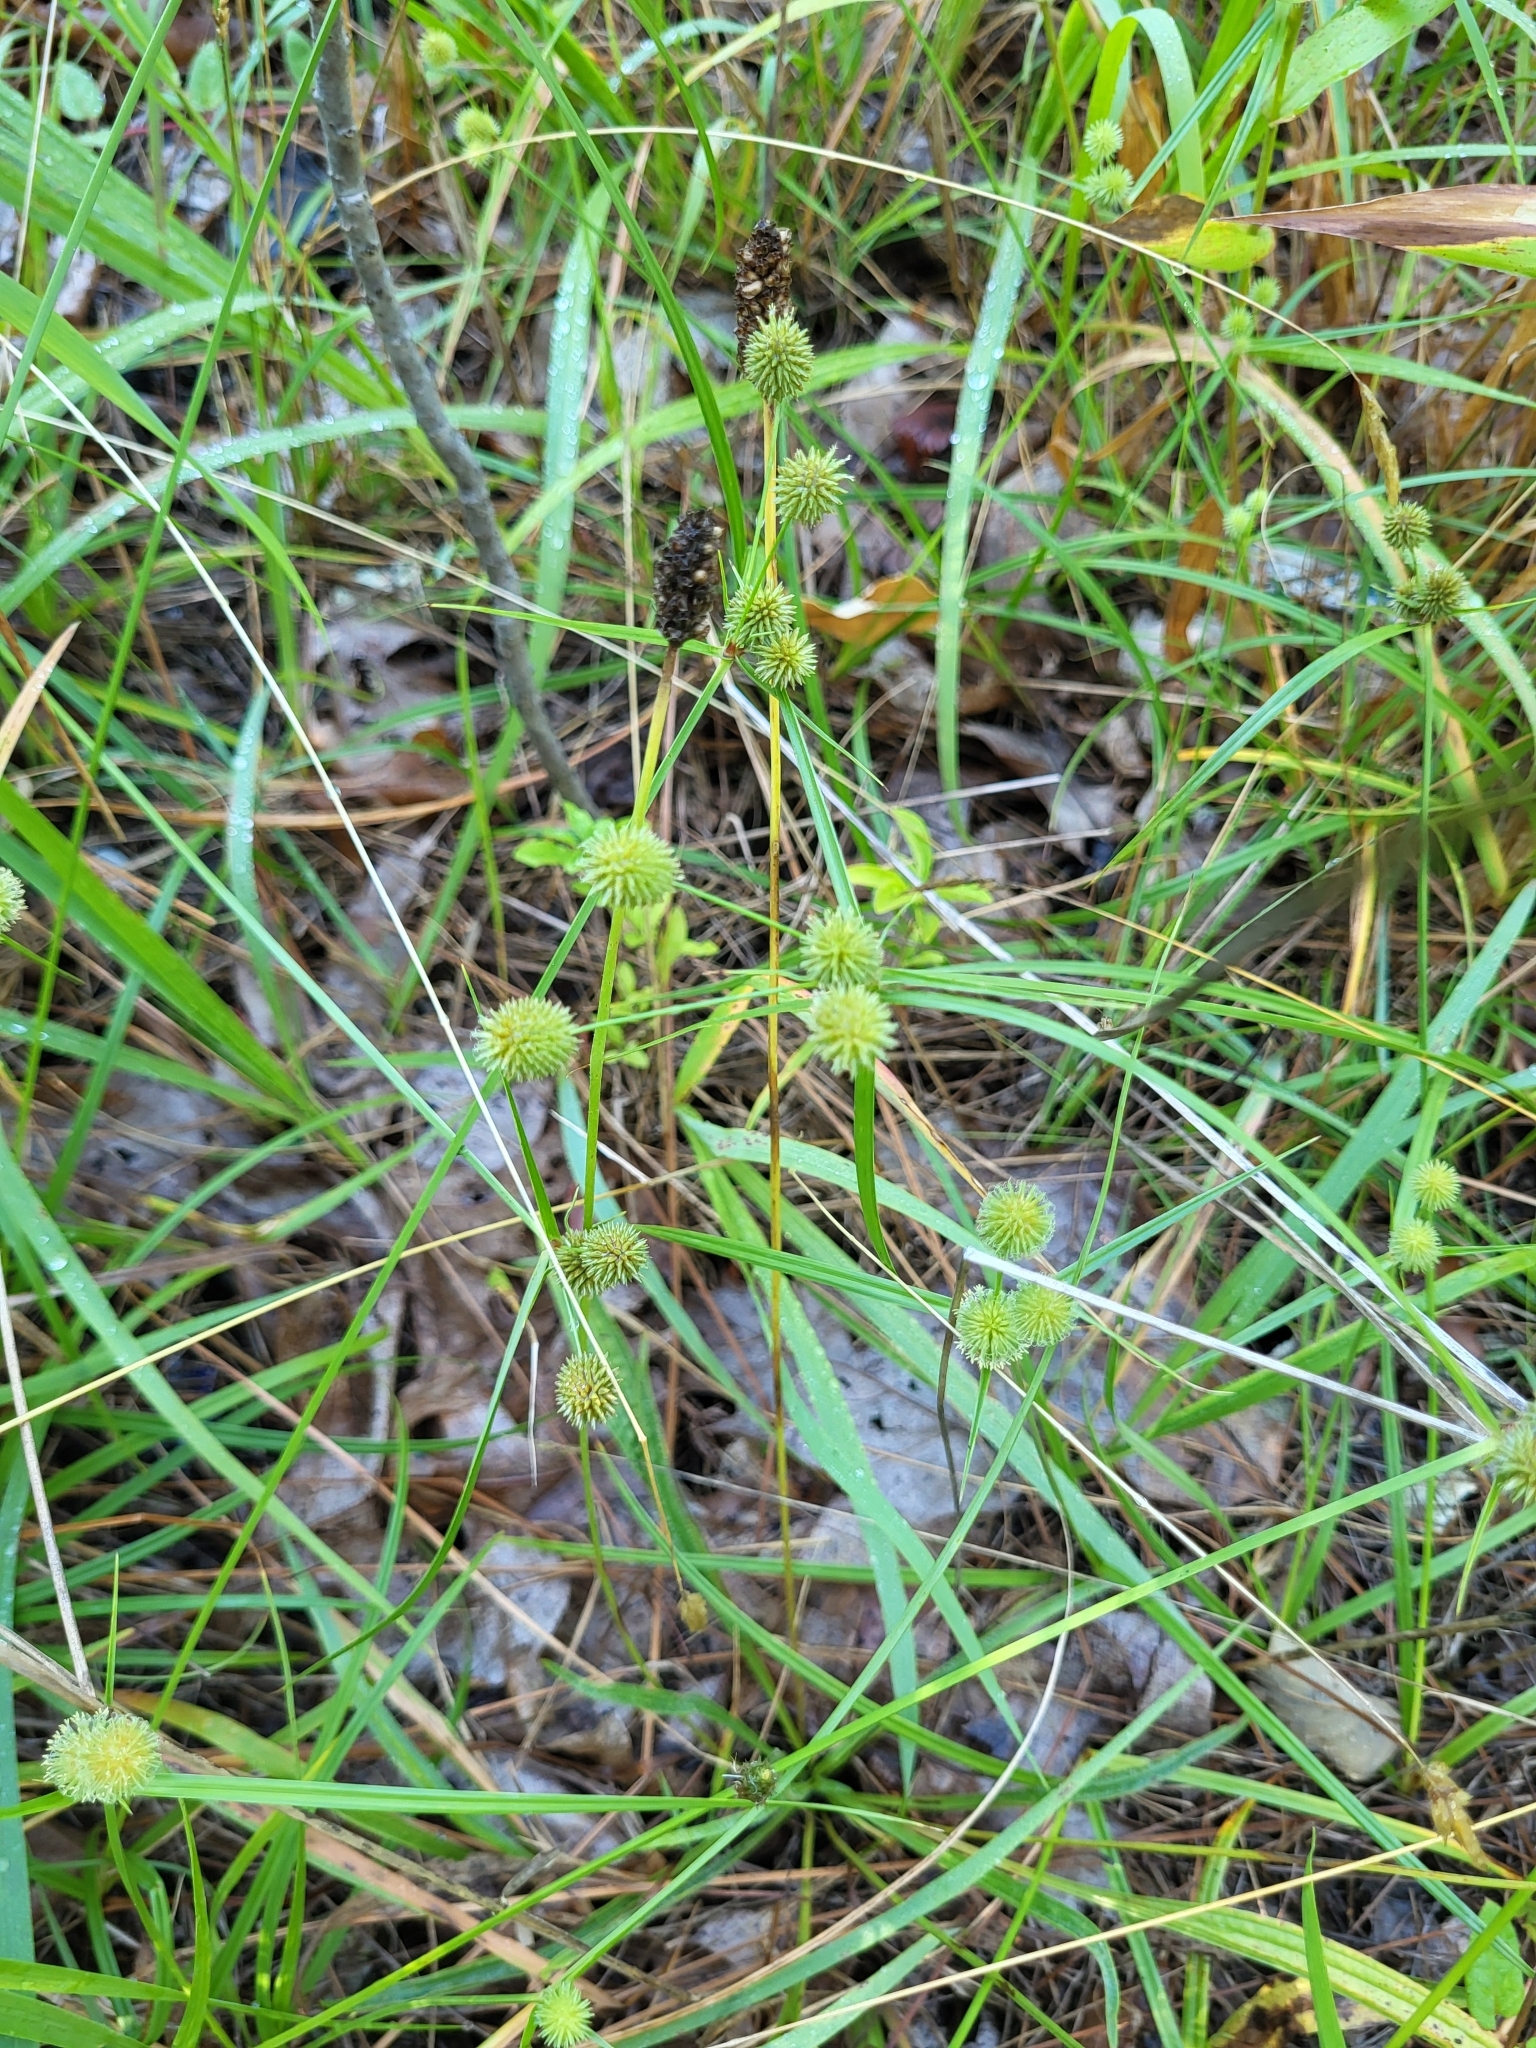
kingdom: Plantae
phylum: Tracheophyta
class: Liliopsida
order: Poales
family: Cyperaceae
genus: Cyperus
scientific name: Cyperus echinatus
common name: Teasel sedge
